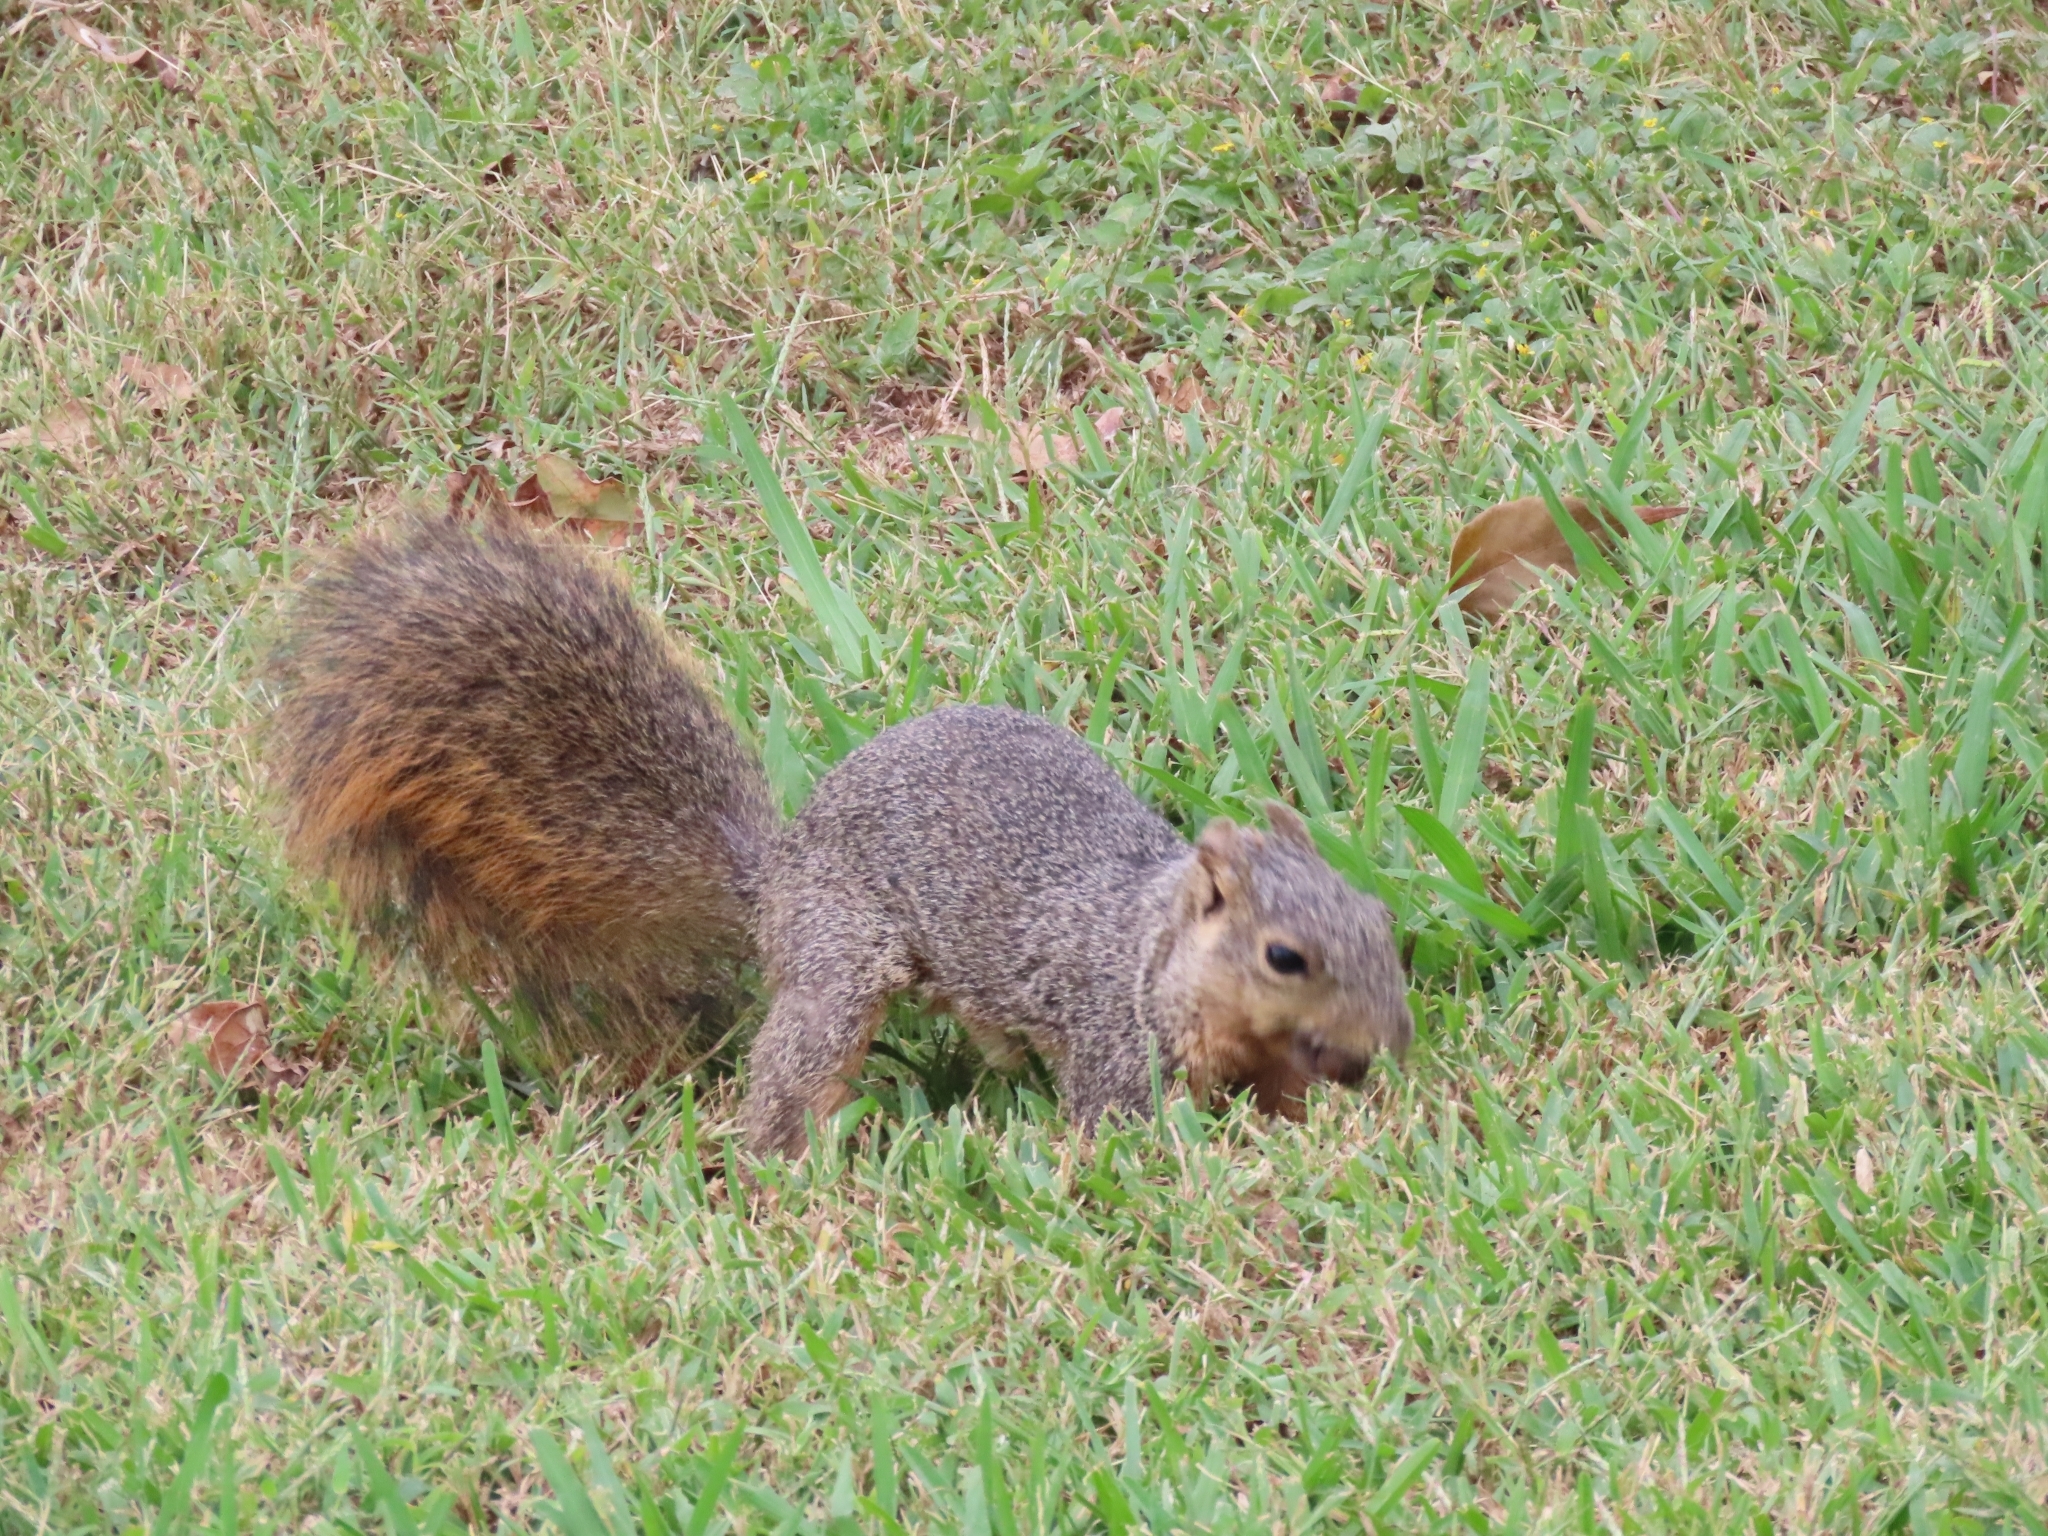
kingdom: Animalia
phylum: Chordata
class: Mammalia
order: Rodentia
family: Sciuridae
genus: Sciurus
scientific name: Sciurus niger
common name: Fox squirrel
